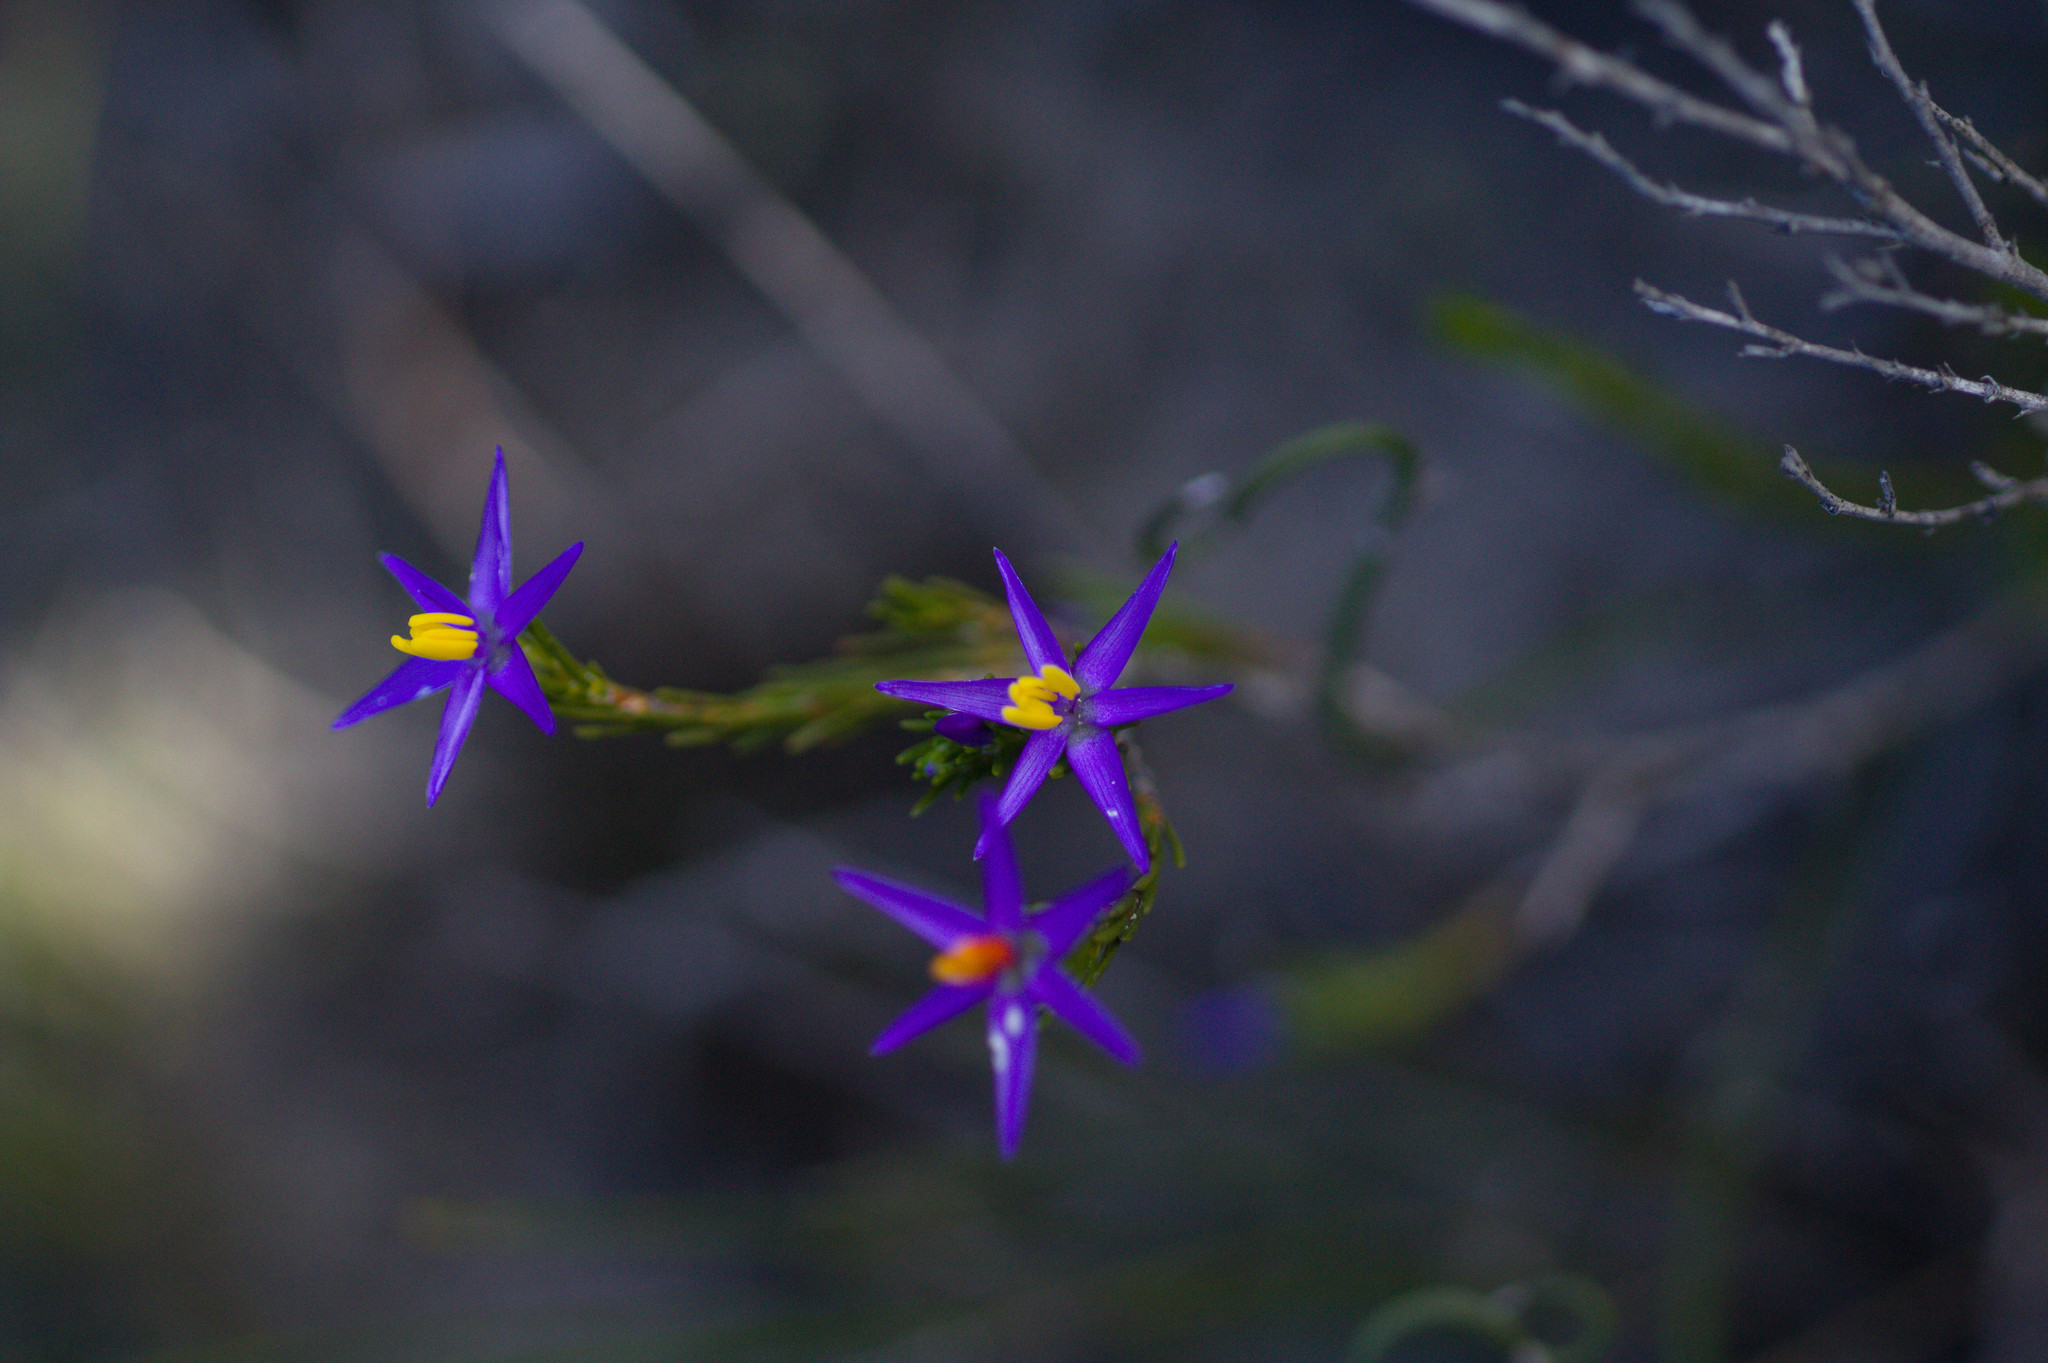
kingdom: Plantae
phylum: Tracheophyta
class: Liliopsida
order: Arecales
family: Dasypogonaceae
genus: Calectasia
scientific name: Calectasia gracilis
